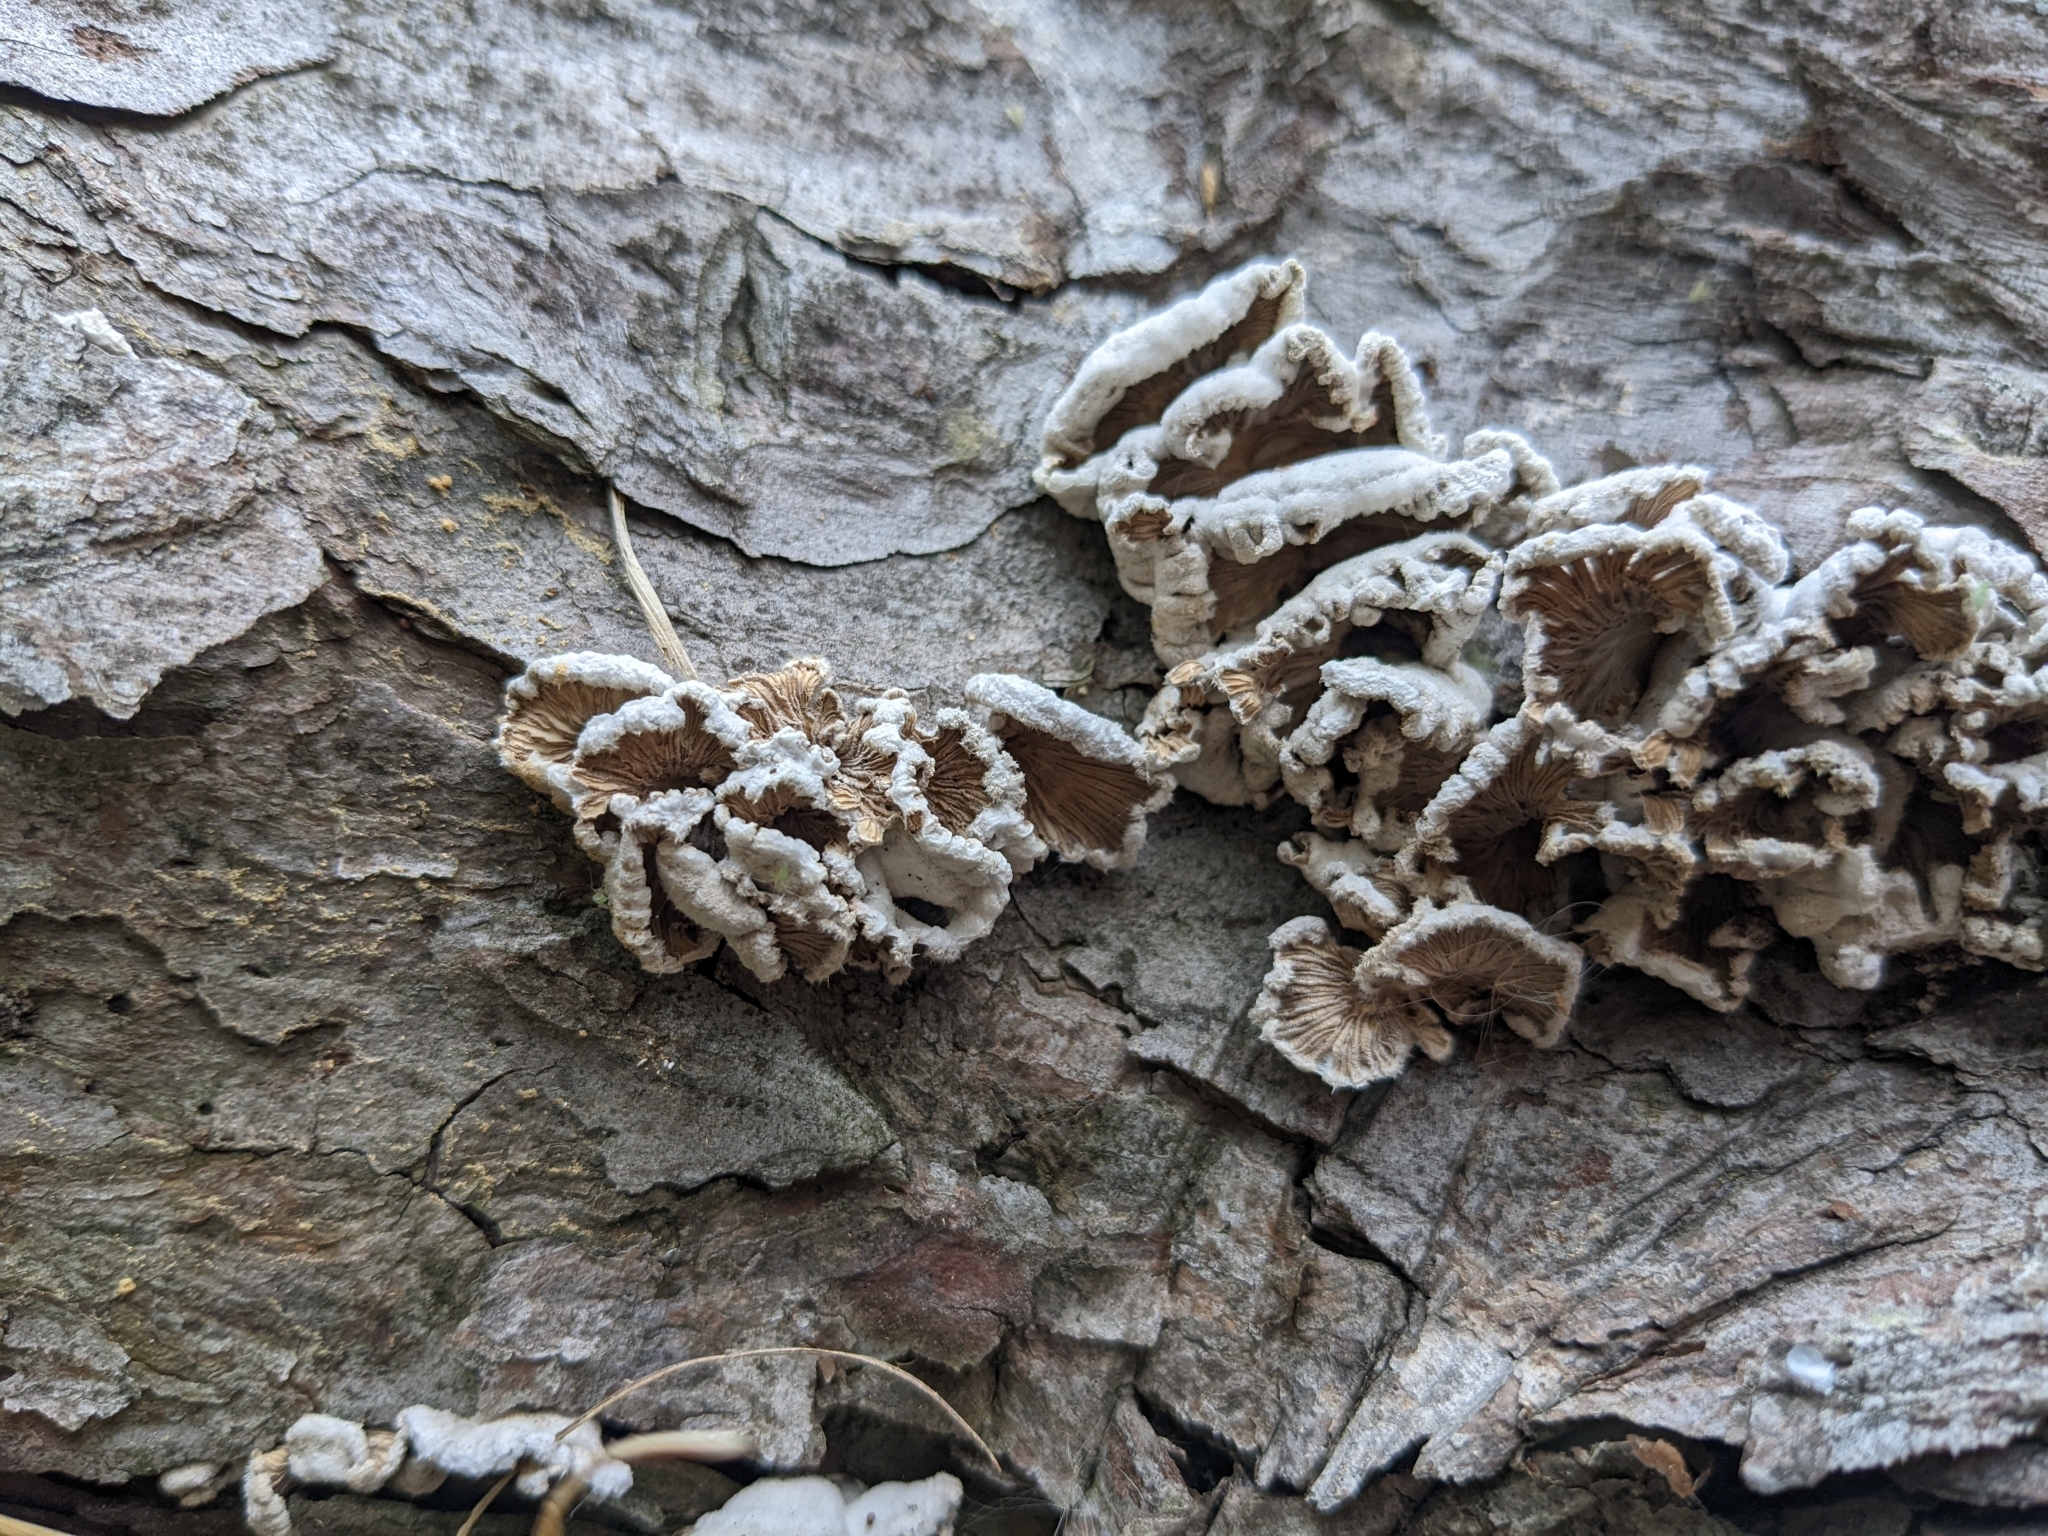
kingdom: Fungi
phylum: Basidiomycota
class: Agaricomycetes
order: Agaricales
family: Schizophyllaceae
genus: Schizophyllum
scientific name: Schizophyllum commune
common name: Common porecrust
